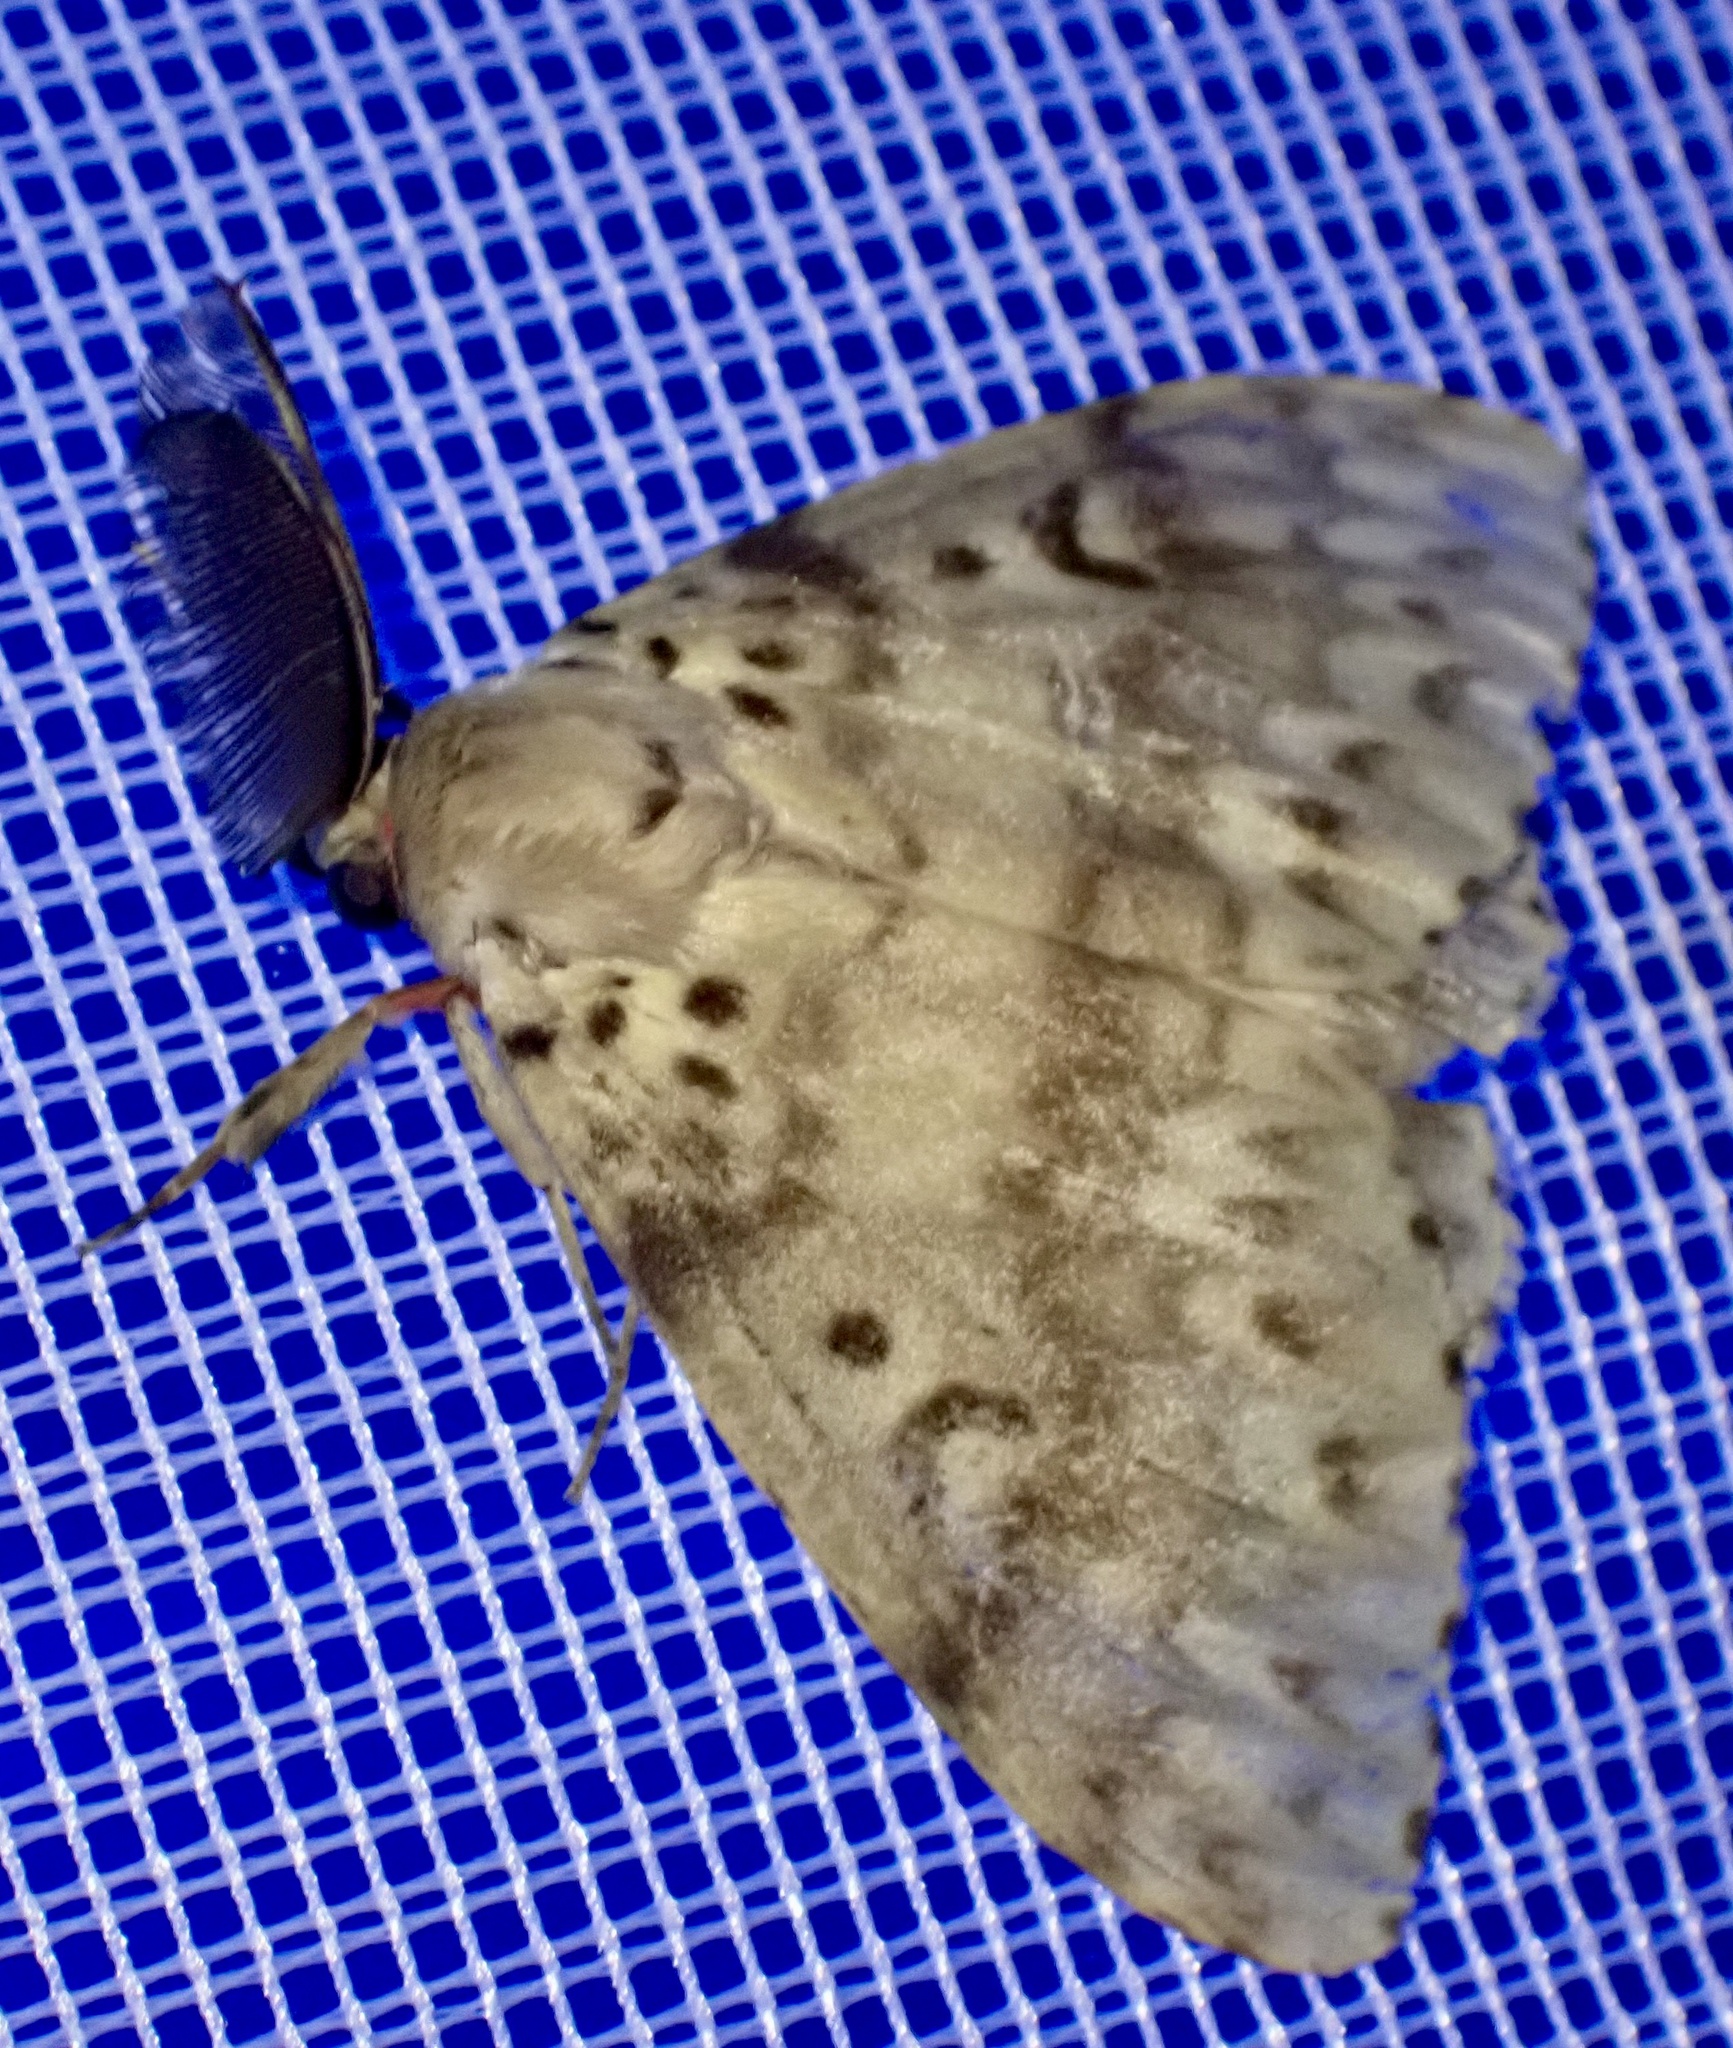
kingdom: Animalia
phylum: Arthropoda
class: Insecta
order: Lepidoptera
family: Erebidae
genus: Lymantria
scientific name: Lymantria lunata
